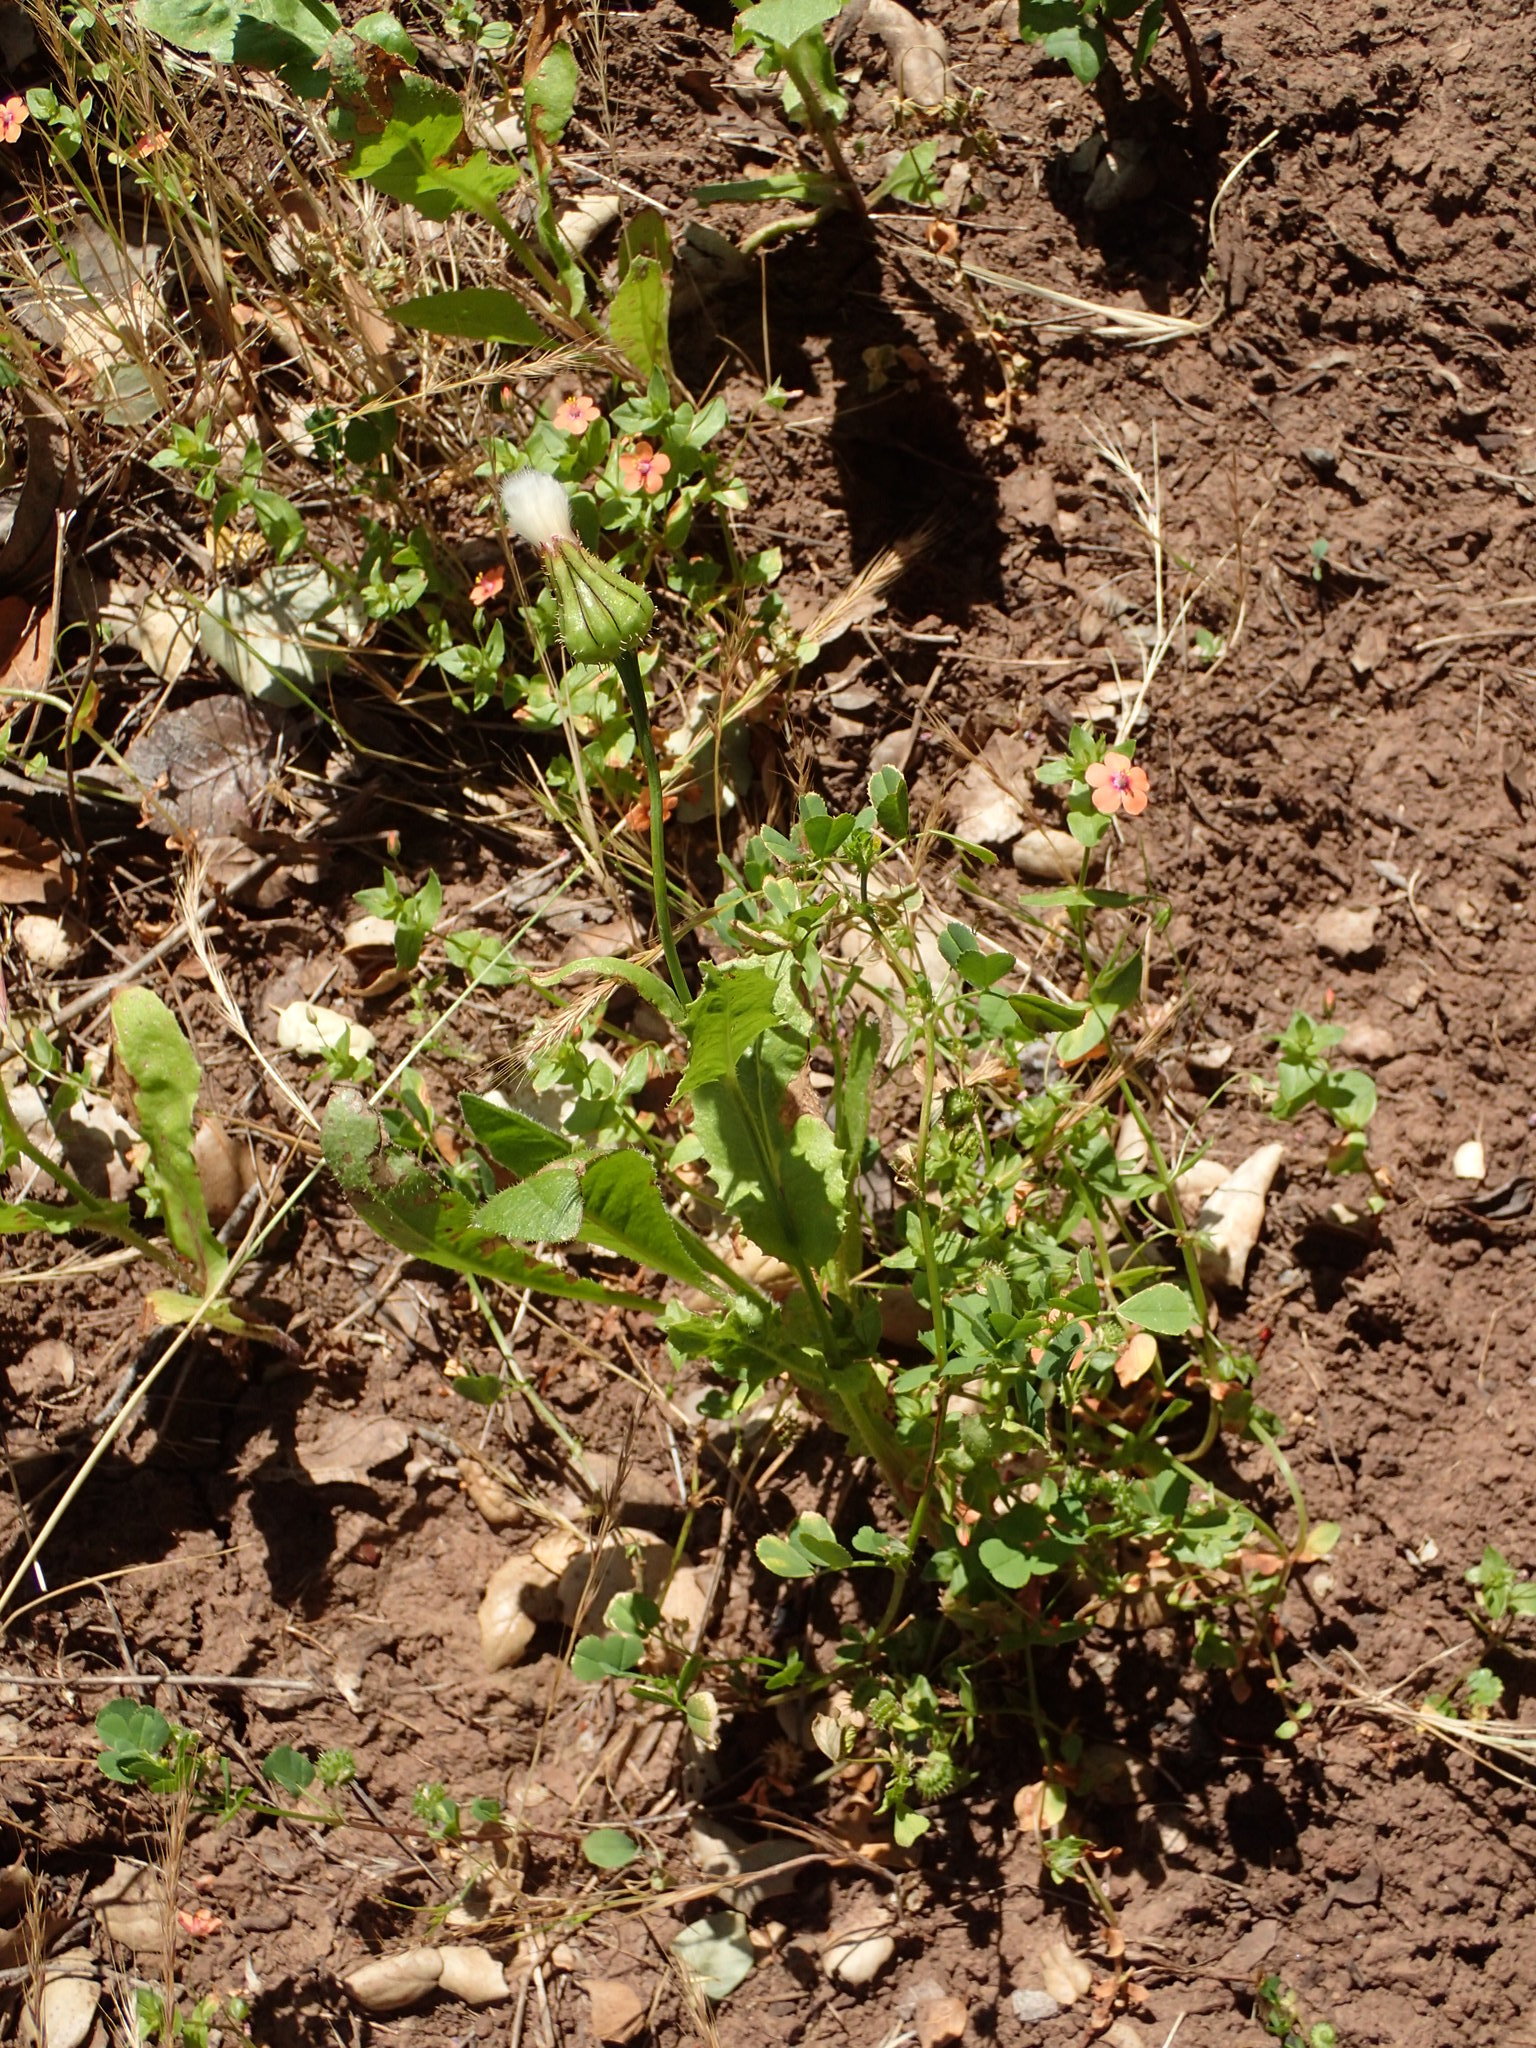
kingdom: Plantae
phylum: Tracheophyta
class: Magnoliopsida
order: Asterales
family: Asteraceae
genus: Urospermum
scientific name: Urospermum picroides
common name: False hawkbit
